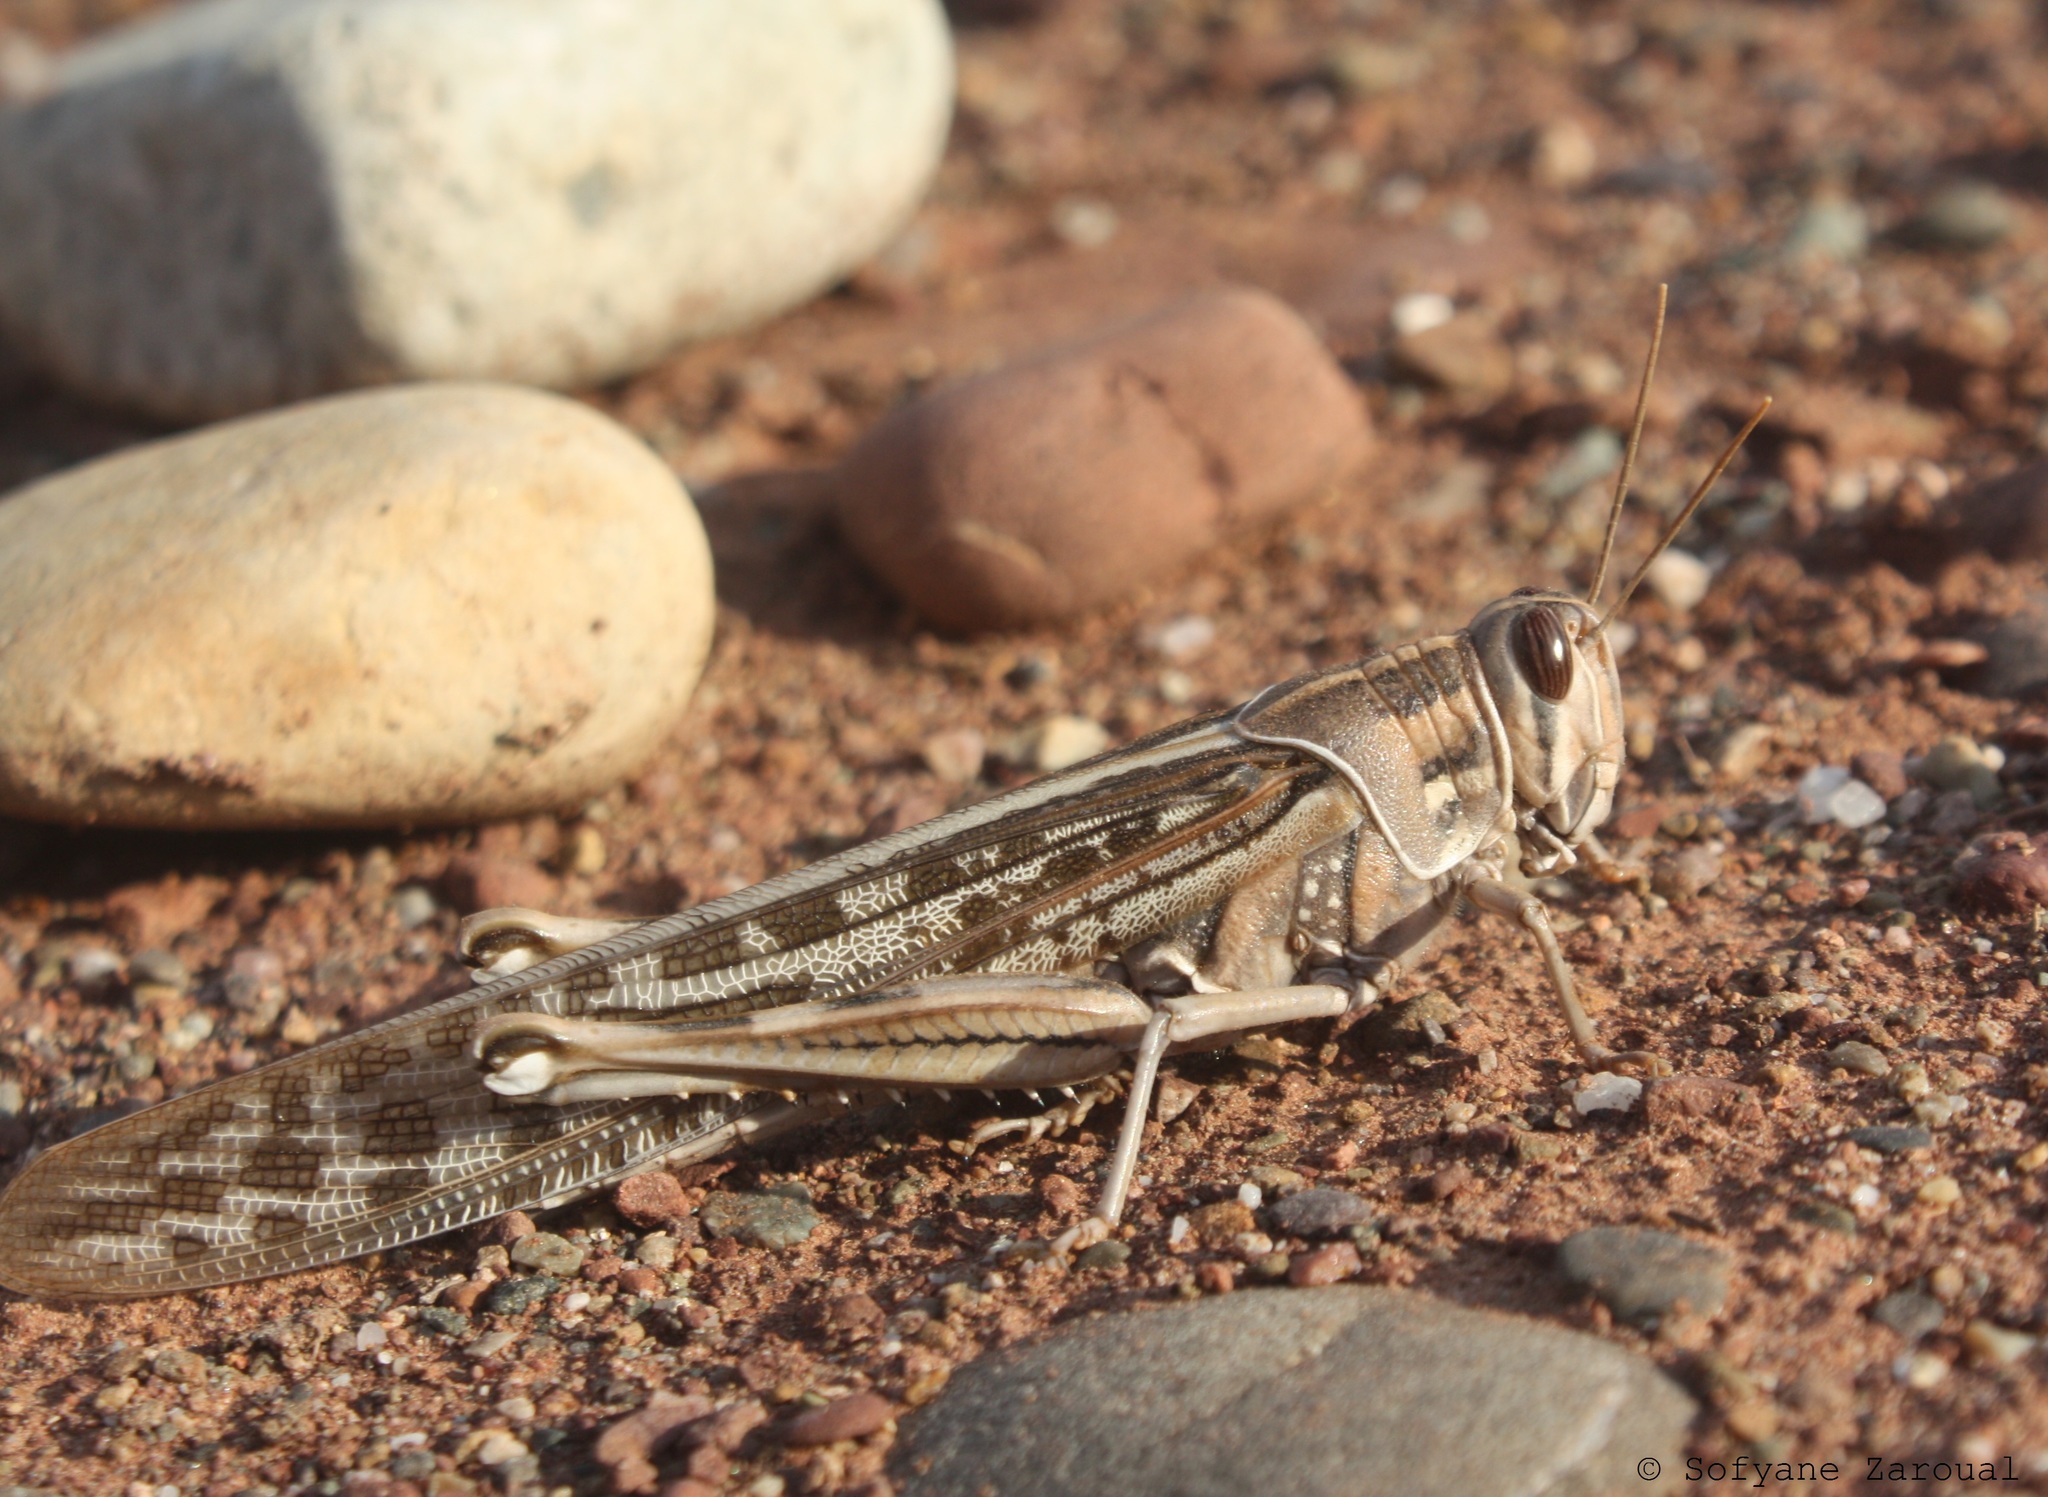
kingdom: Animalia
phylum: Arthropoda
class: Insecta
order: Orthoptera
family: Acrididae
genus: Schistocerca
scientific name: Schistocerca gregaria
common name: Desert locust
